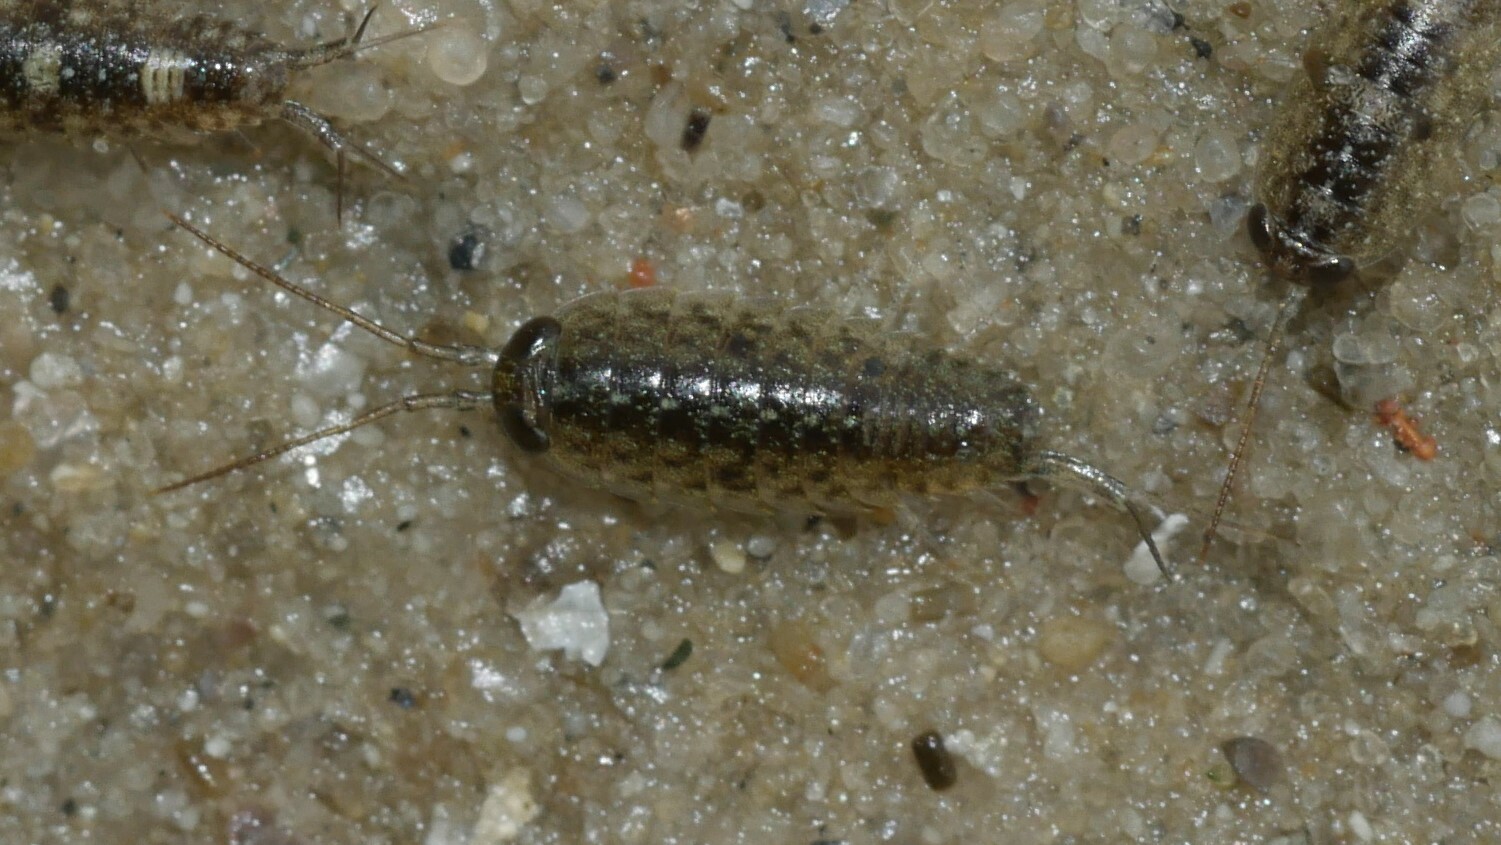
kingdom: Animalia
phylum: Arthropoda
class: Malacostraca
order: Isopoda
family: Ligiidae
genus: Ligia
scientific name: Ligia exotica
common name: Wharf roach
